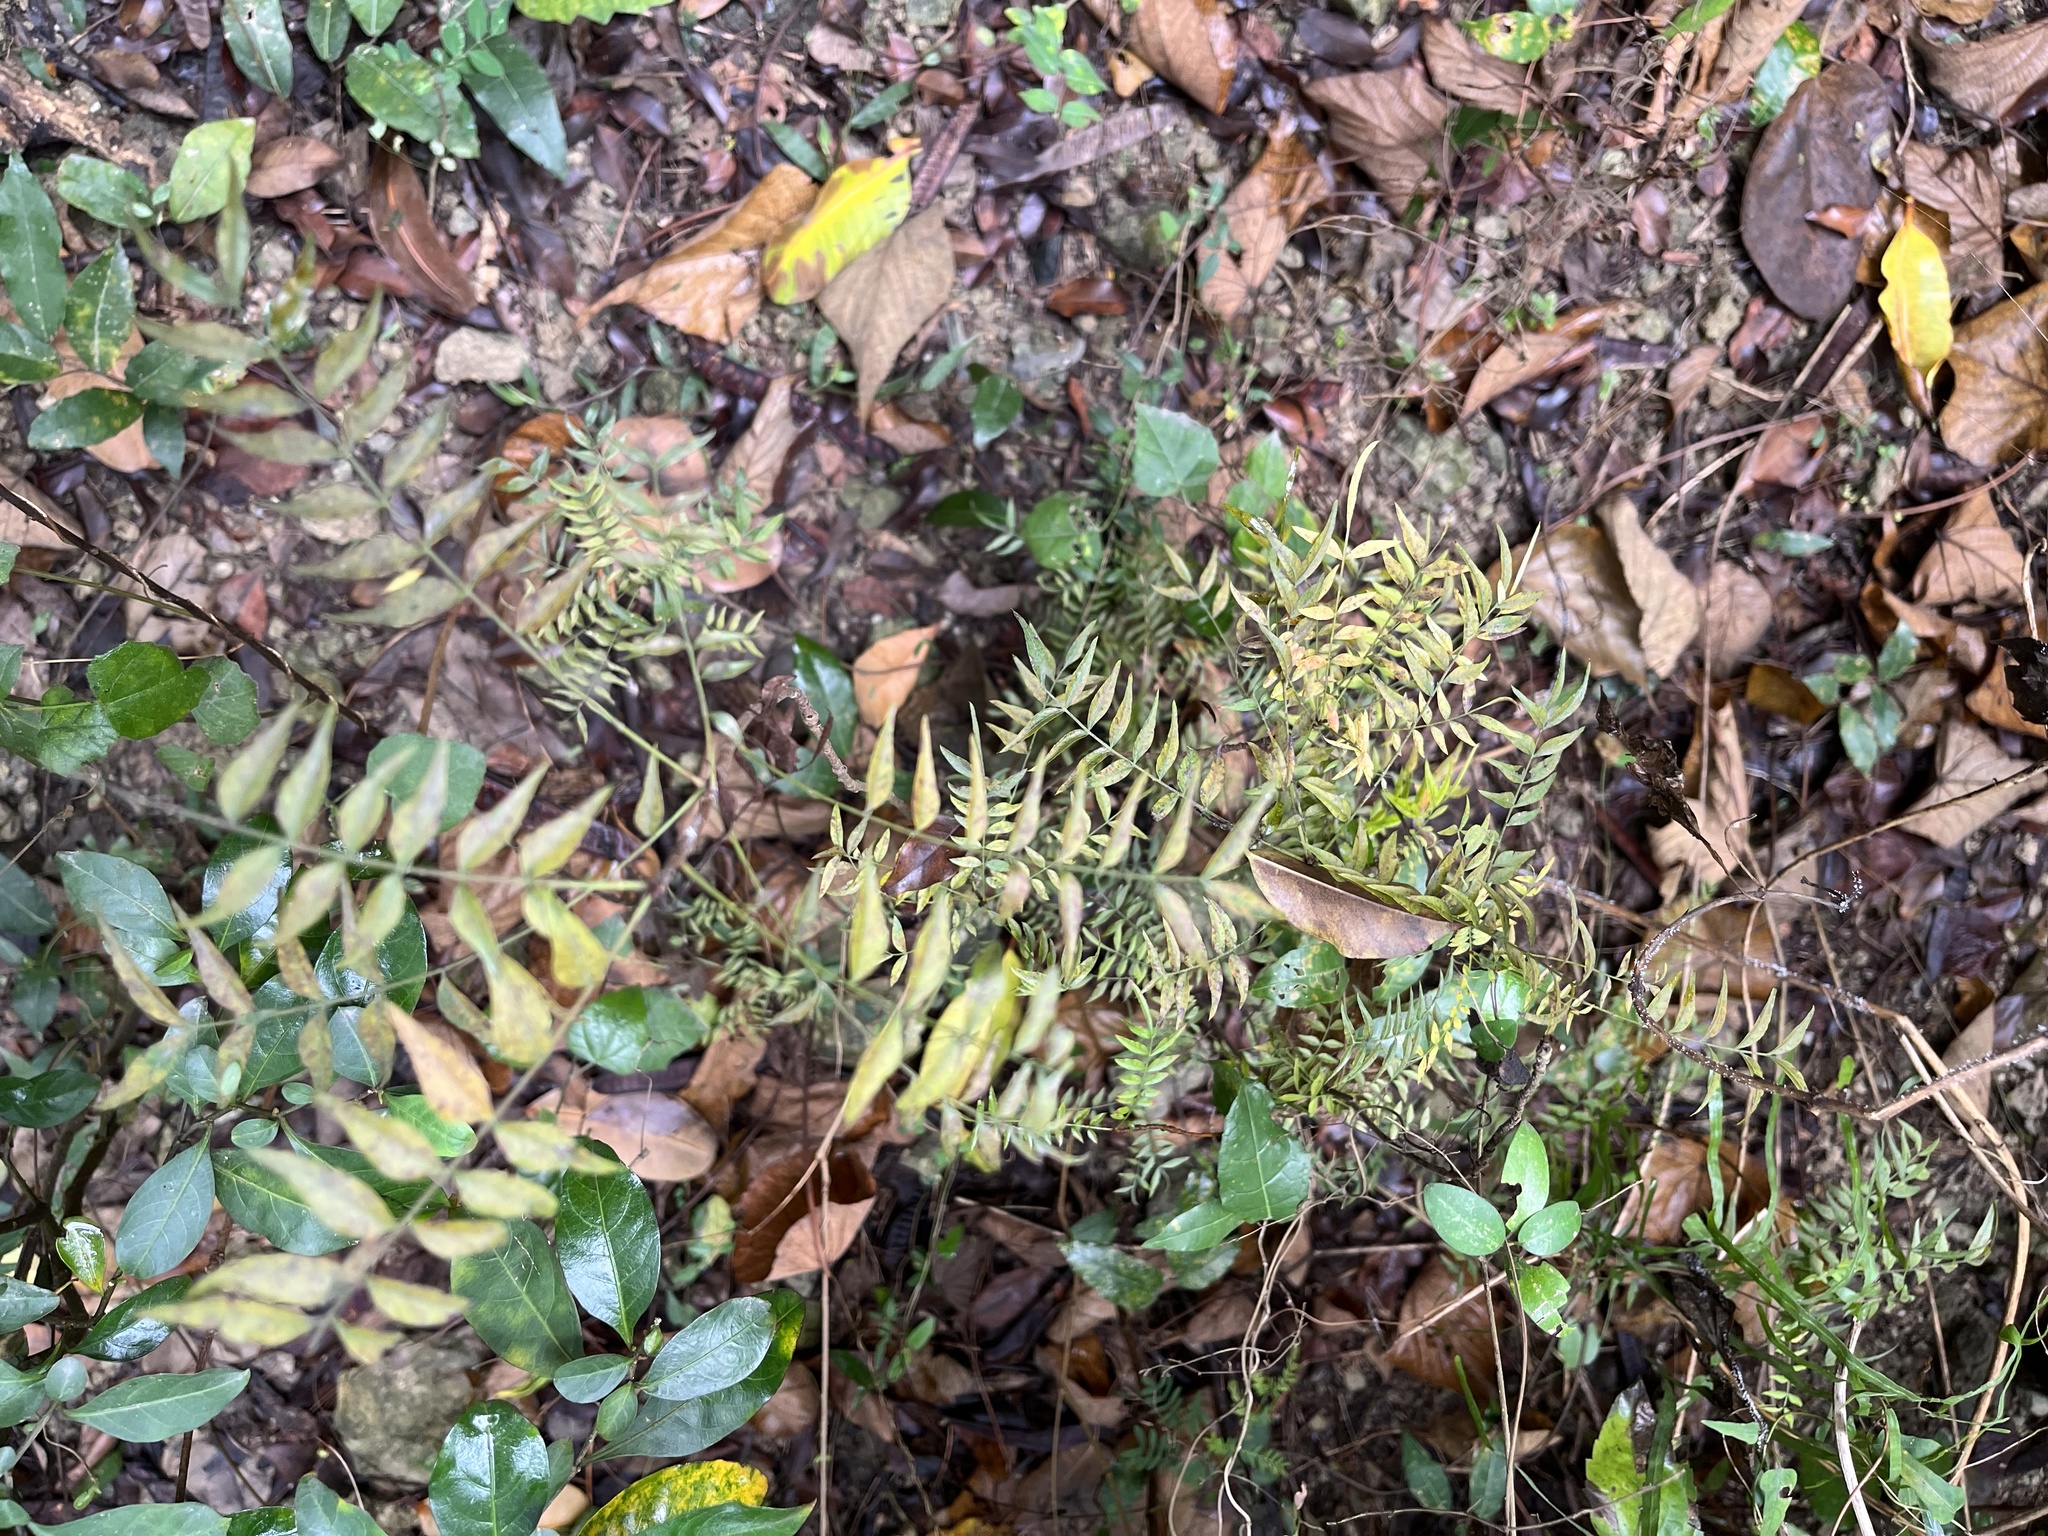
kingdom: Plantae
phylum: Tracheophyta
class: Magnoliopsida
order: Sapindales
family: Anacardiaceae
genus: Pistacia
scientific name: Pistacia chinensis
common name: Chinese pistache
